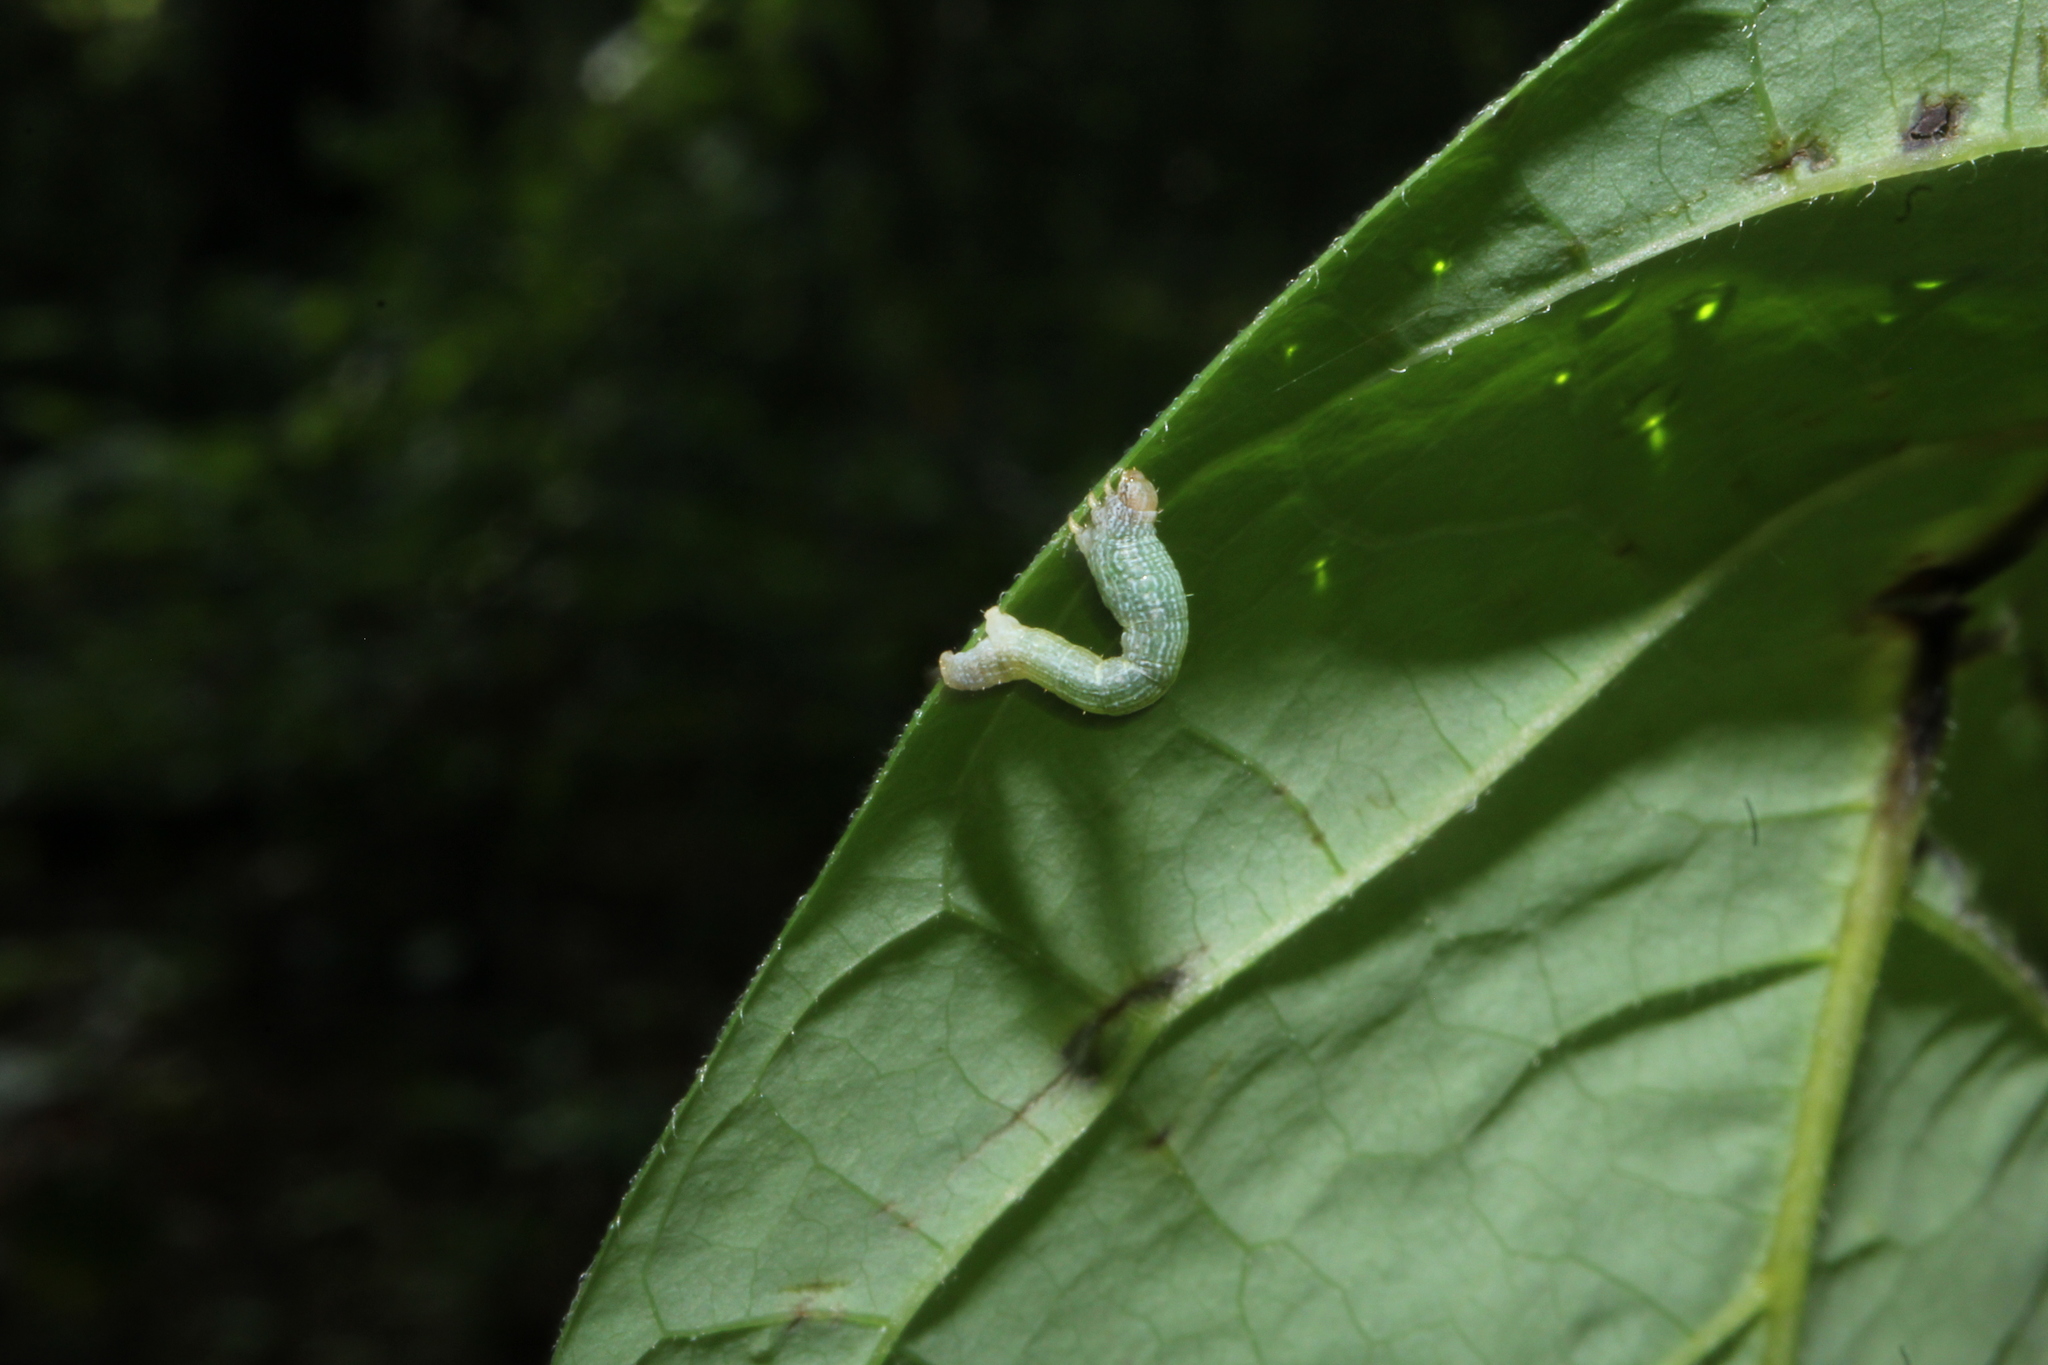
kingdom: Animalia
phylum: Arthropoda
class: Insecta
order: Lepidoptera
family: Geometridae
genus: Epimecis
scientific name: Epimecis hortaria
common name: Tulip-tree beauty
